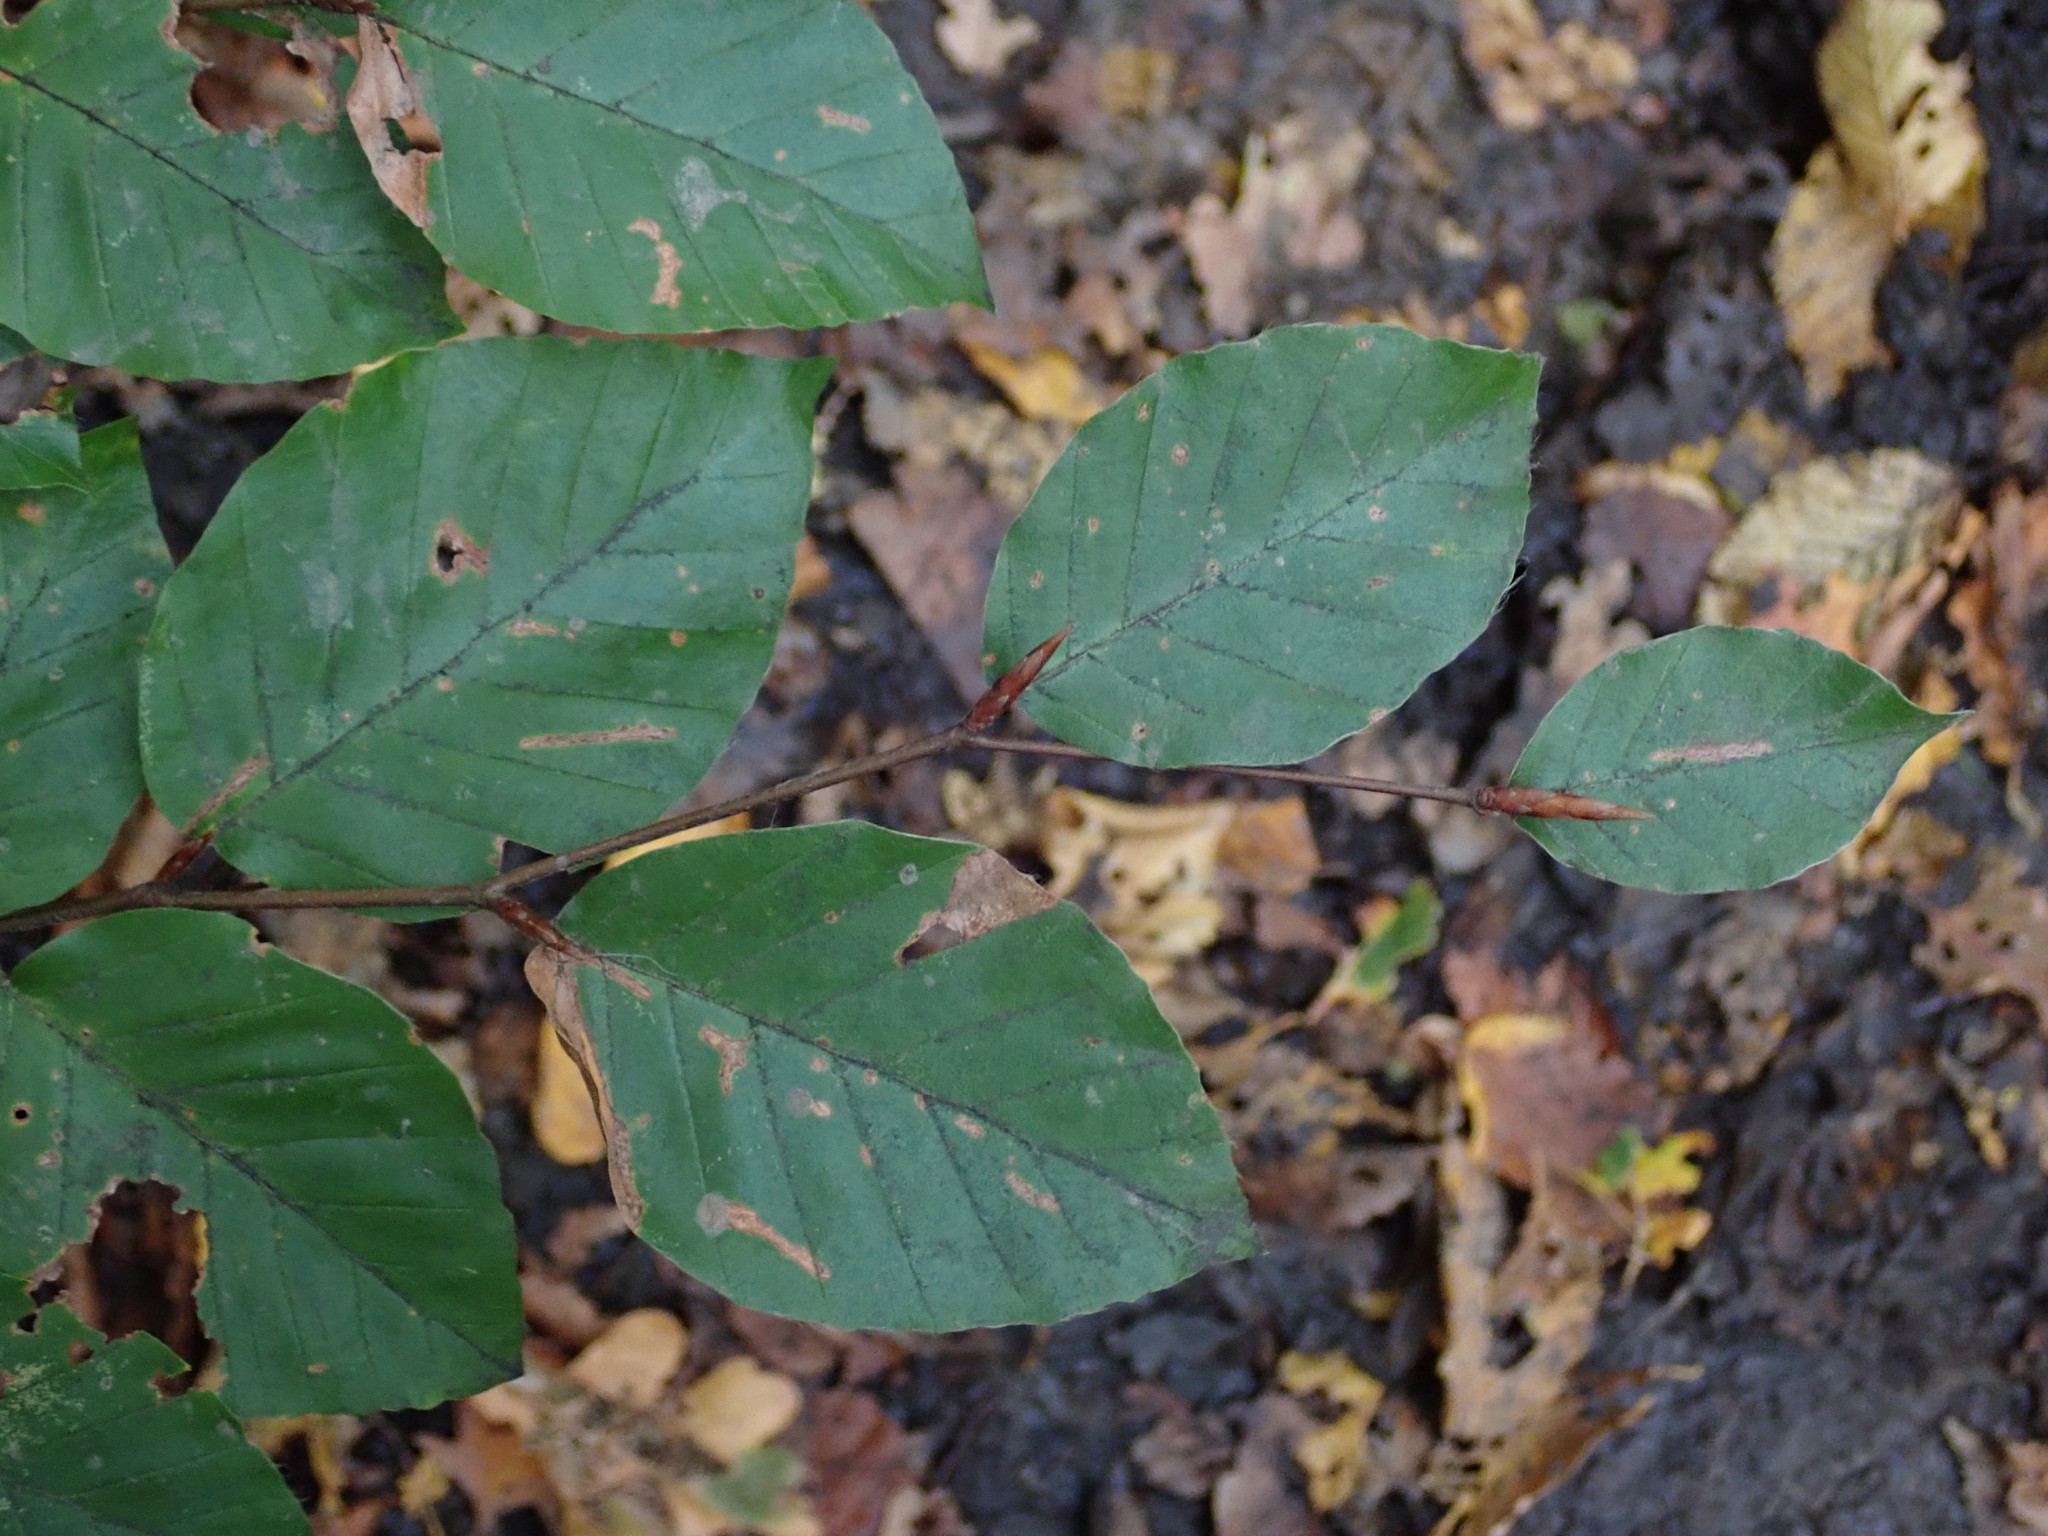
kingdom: Plantae
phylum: Tracheophyta
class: Magnoliopsida
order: Fagales
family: Fagaceae
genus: Fagus
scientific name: Fagus sylvatica
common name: Beech
